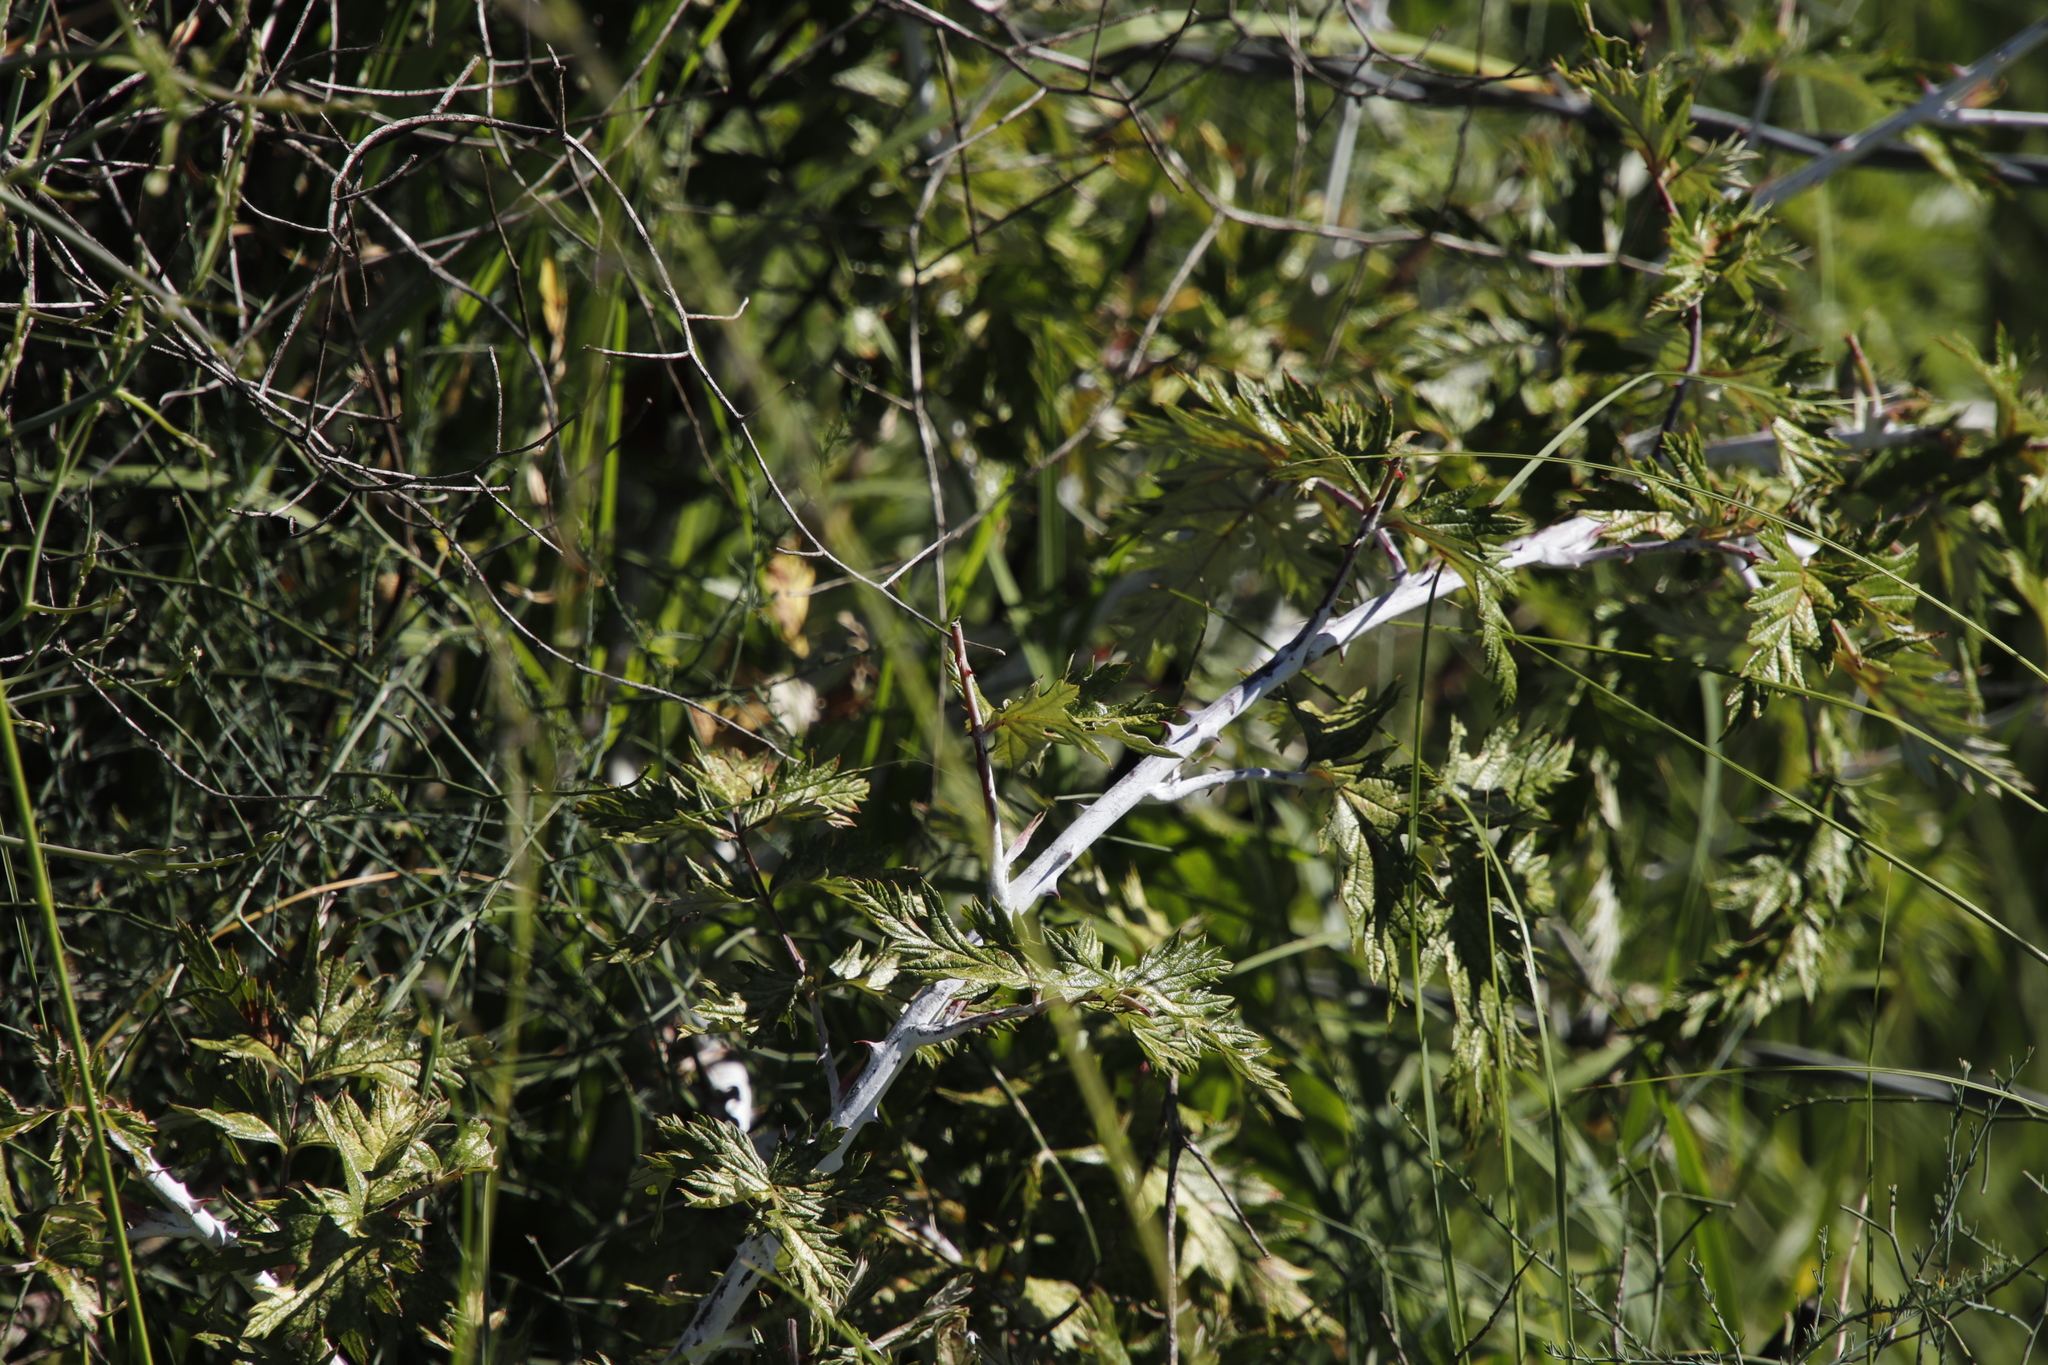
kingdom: Plantae
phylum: Tracheophyta
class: Magnoliopsida
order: Rosales
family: Rosaceae
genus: Rubus
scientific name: Rubus ludwigii
